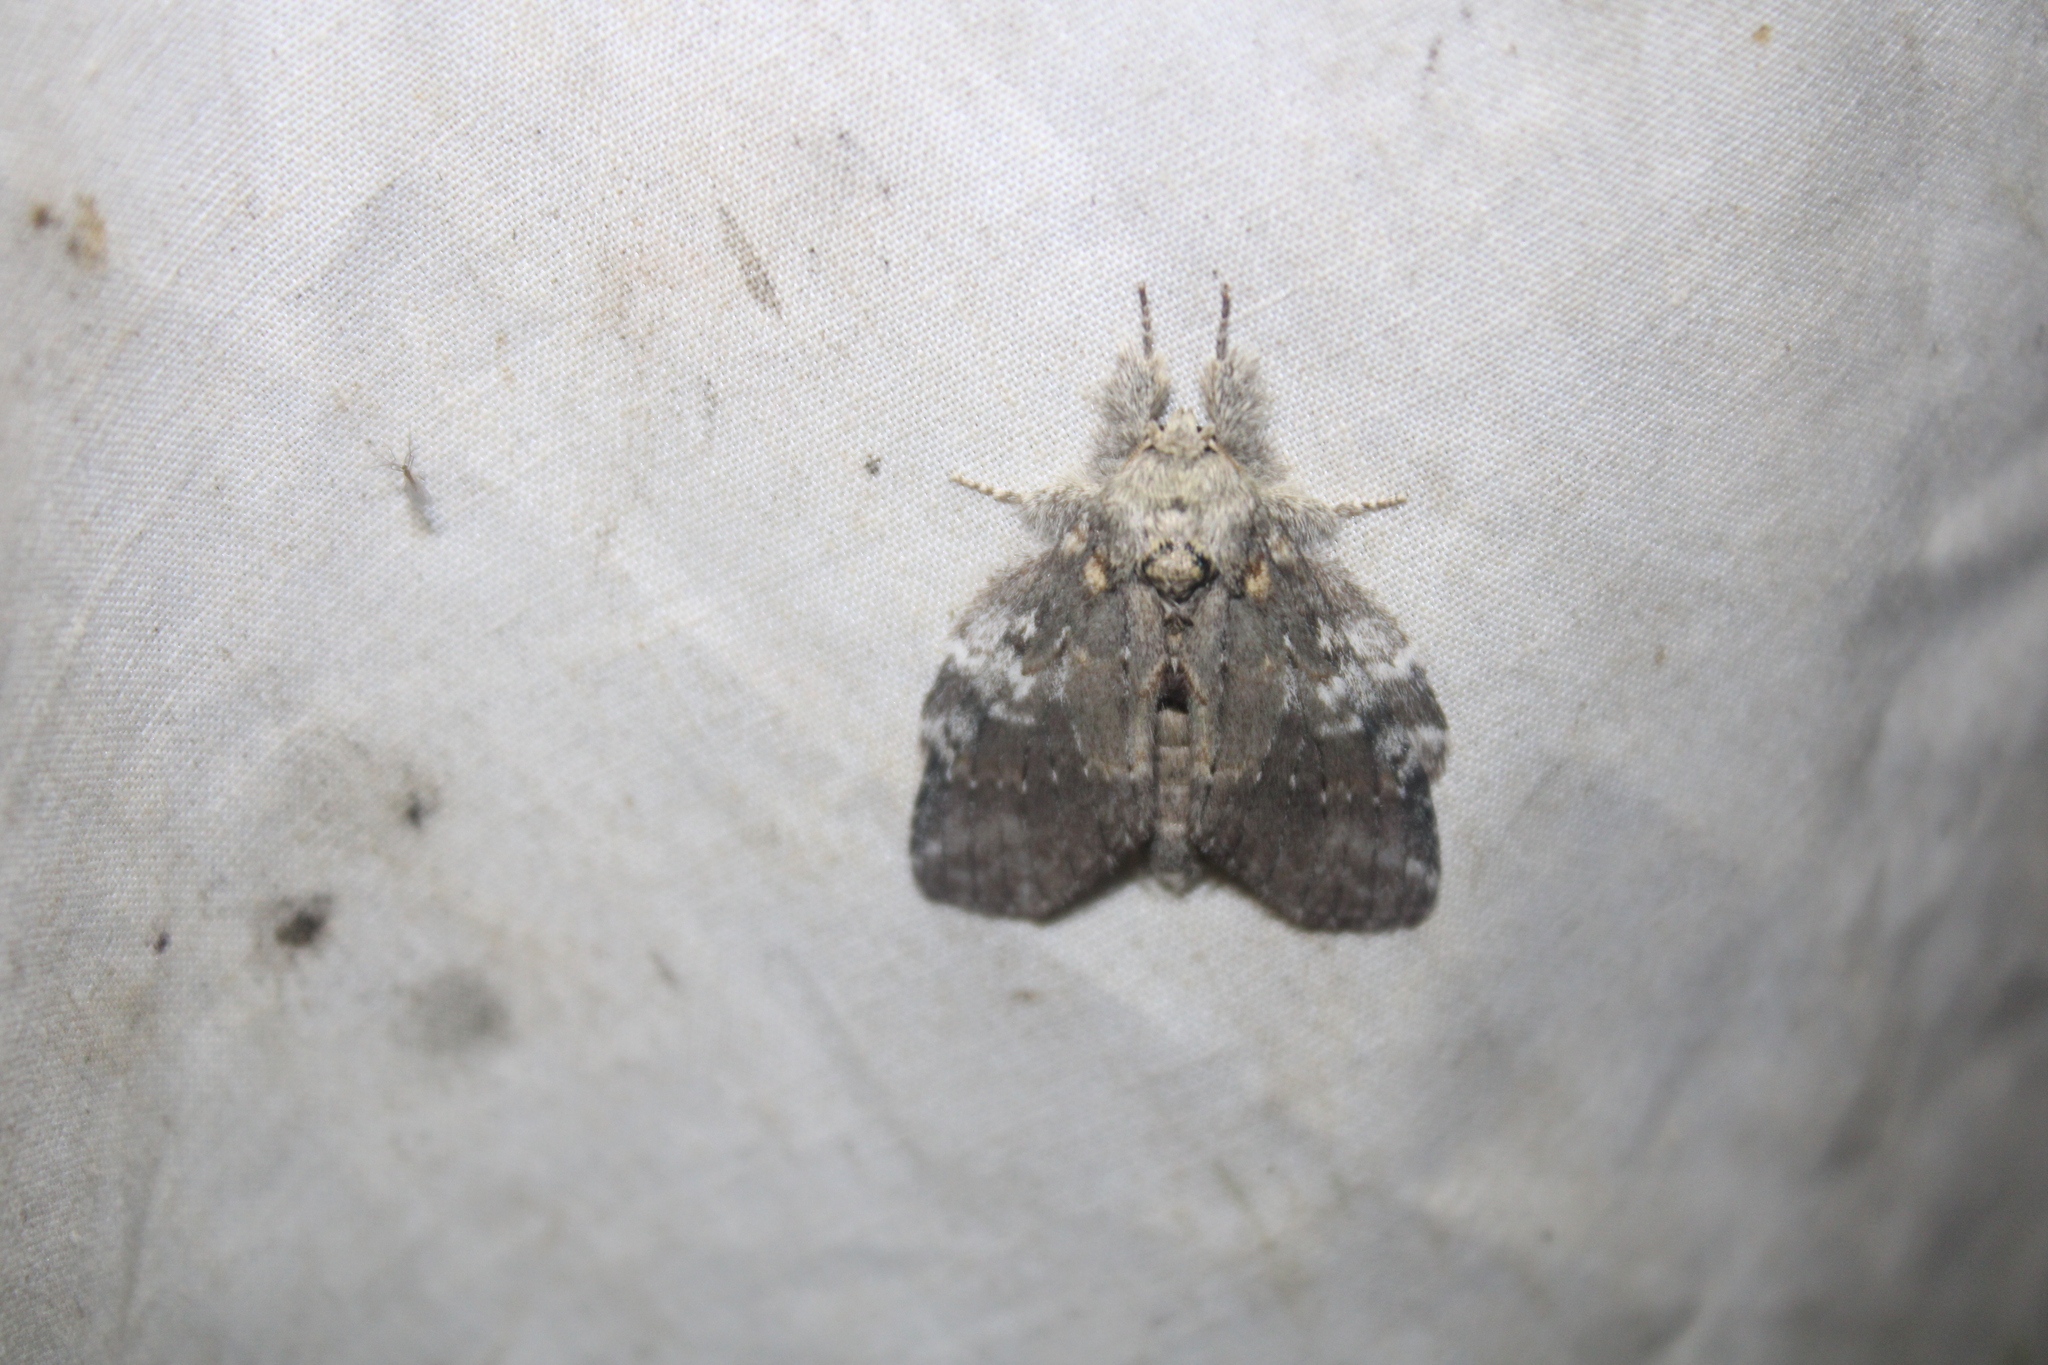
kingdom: Animalia
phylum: Arthropoda
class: Insecta
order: Lepidoptera
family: Notodontidae
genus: Peridea
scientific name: Peridea angulosa
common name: Angulose prominent
